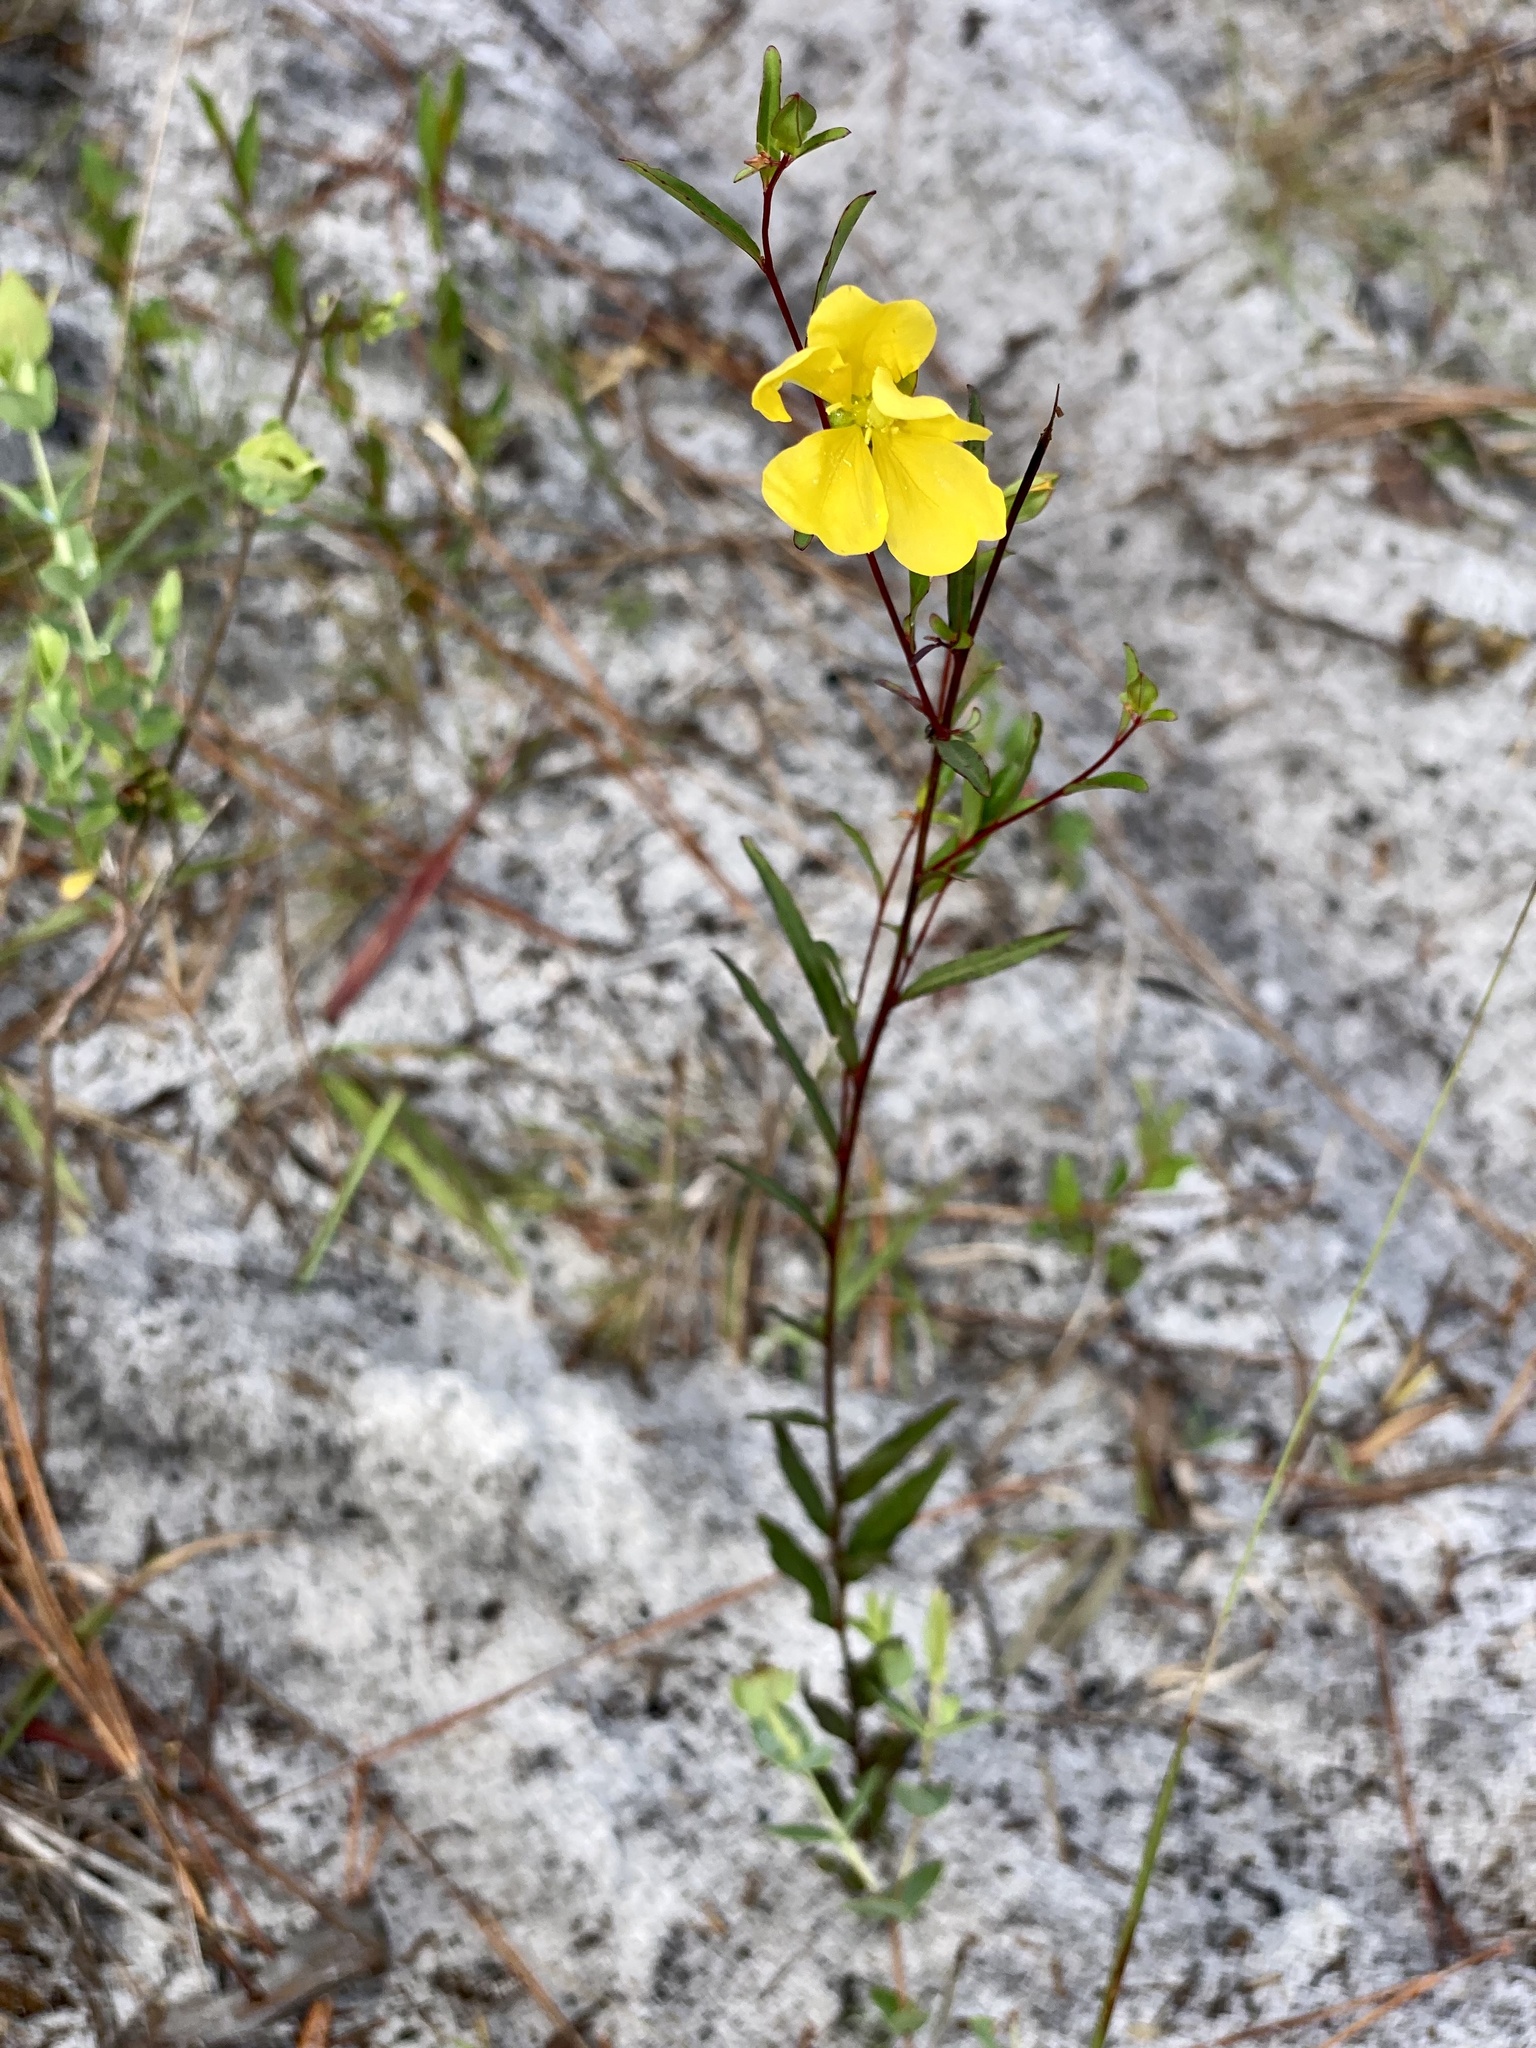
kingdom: Plantae
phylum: Tracheophyta
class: Magnoliopsida
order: Myrtales
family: Onagraceae
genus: Ludwigia
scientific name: Ludwigia maritima
